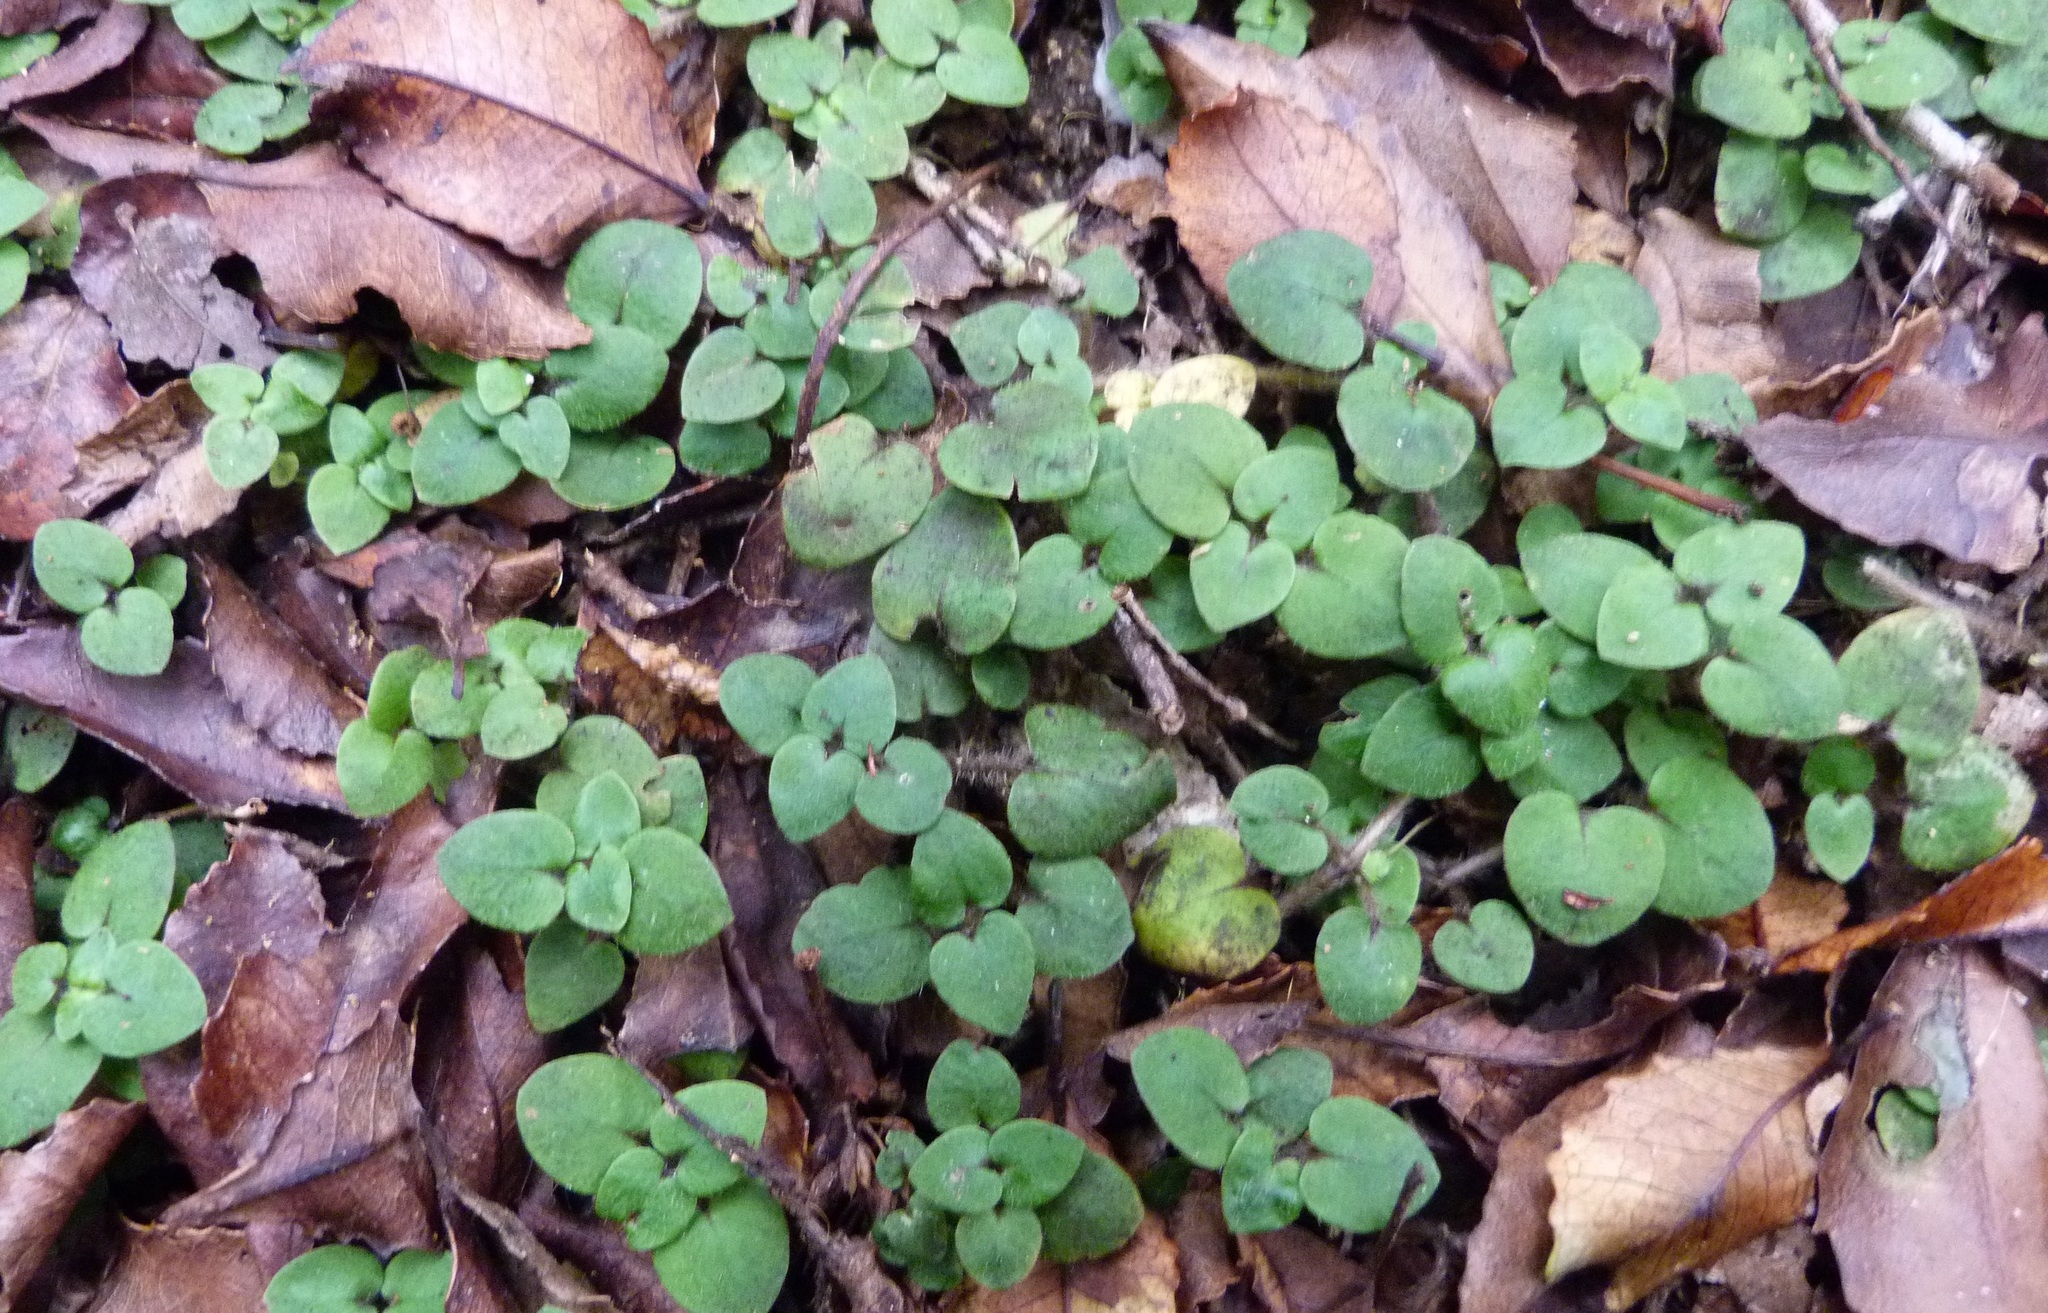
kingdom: Plantae
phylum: Tracheophyta
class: Magnoliopsida
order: Gentianales
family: Rubiaceae
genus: Nertera
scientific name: Nertera villosa
